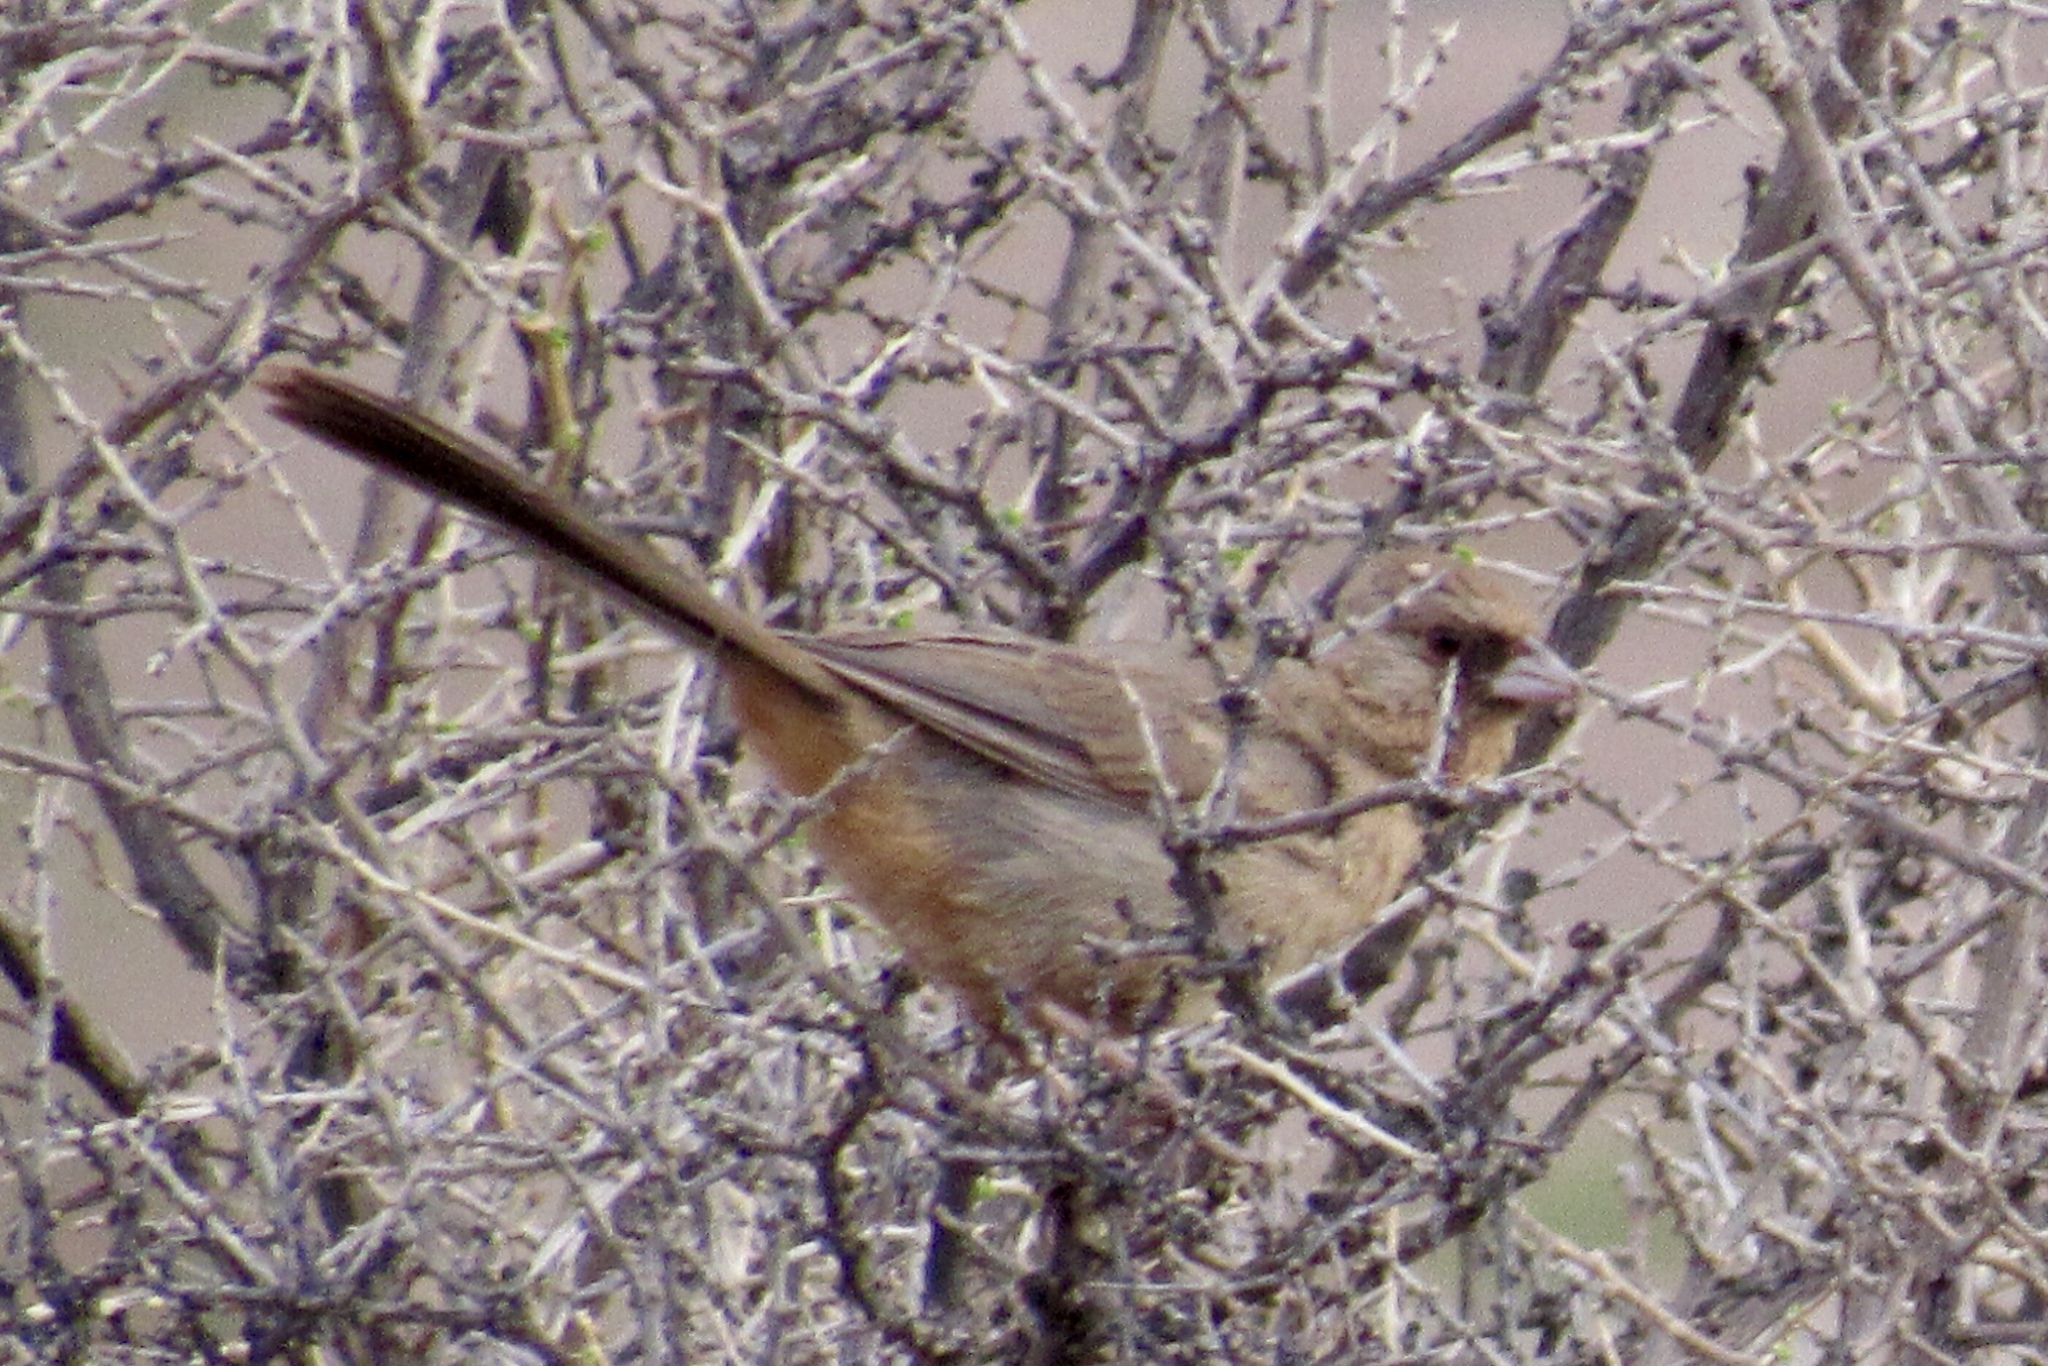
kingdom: Animalia
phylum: Chordata
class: Aves
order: Passeriformes
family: Passerellidae
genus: Melozone
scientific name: Melozone aberti
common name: Abert's towhee
